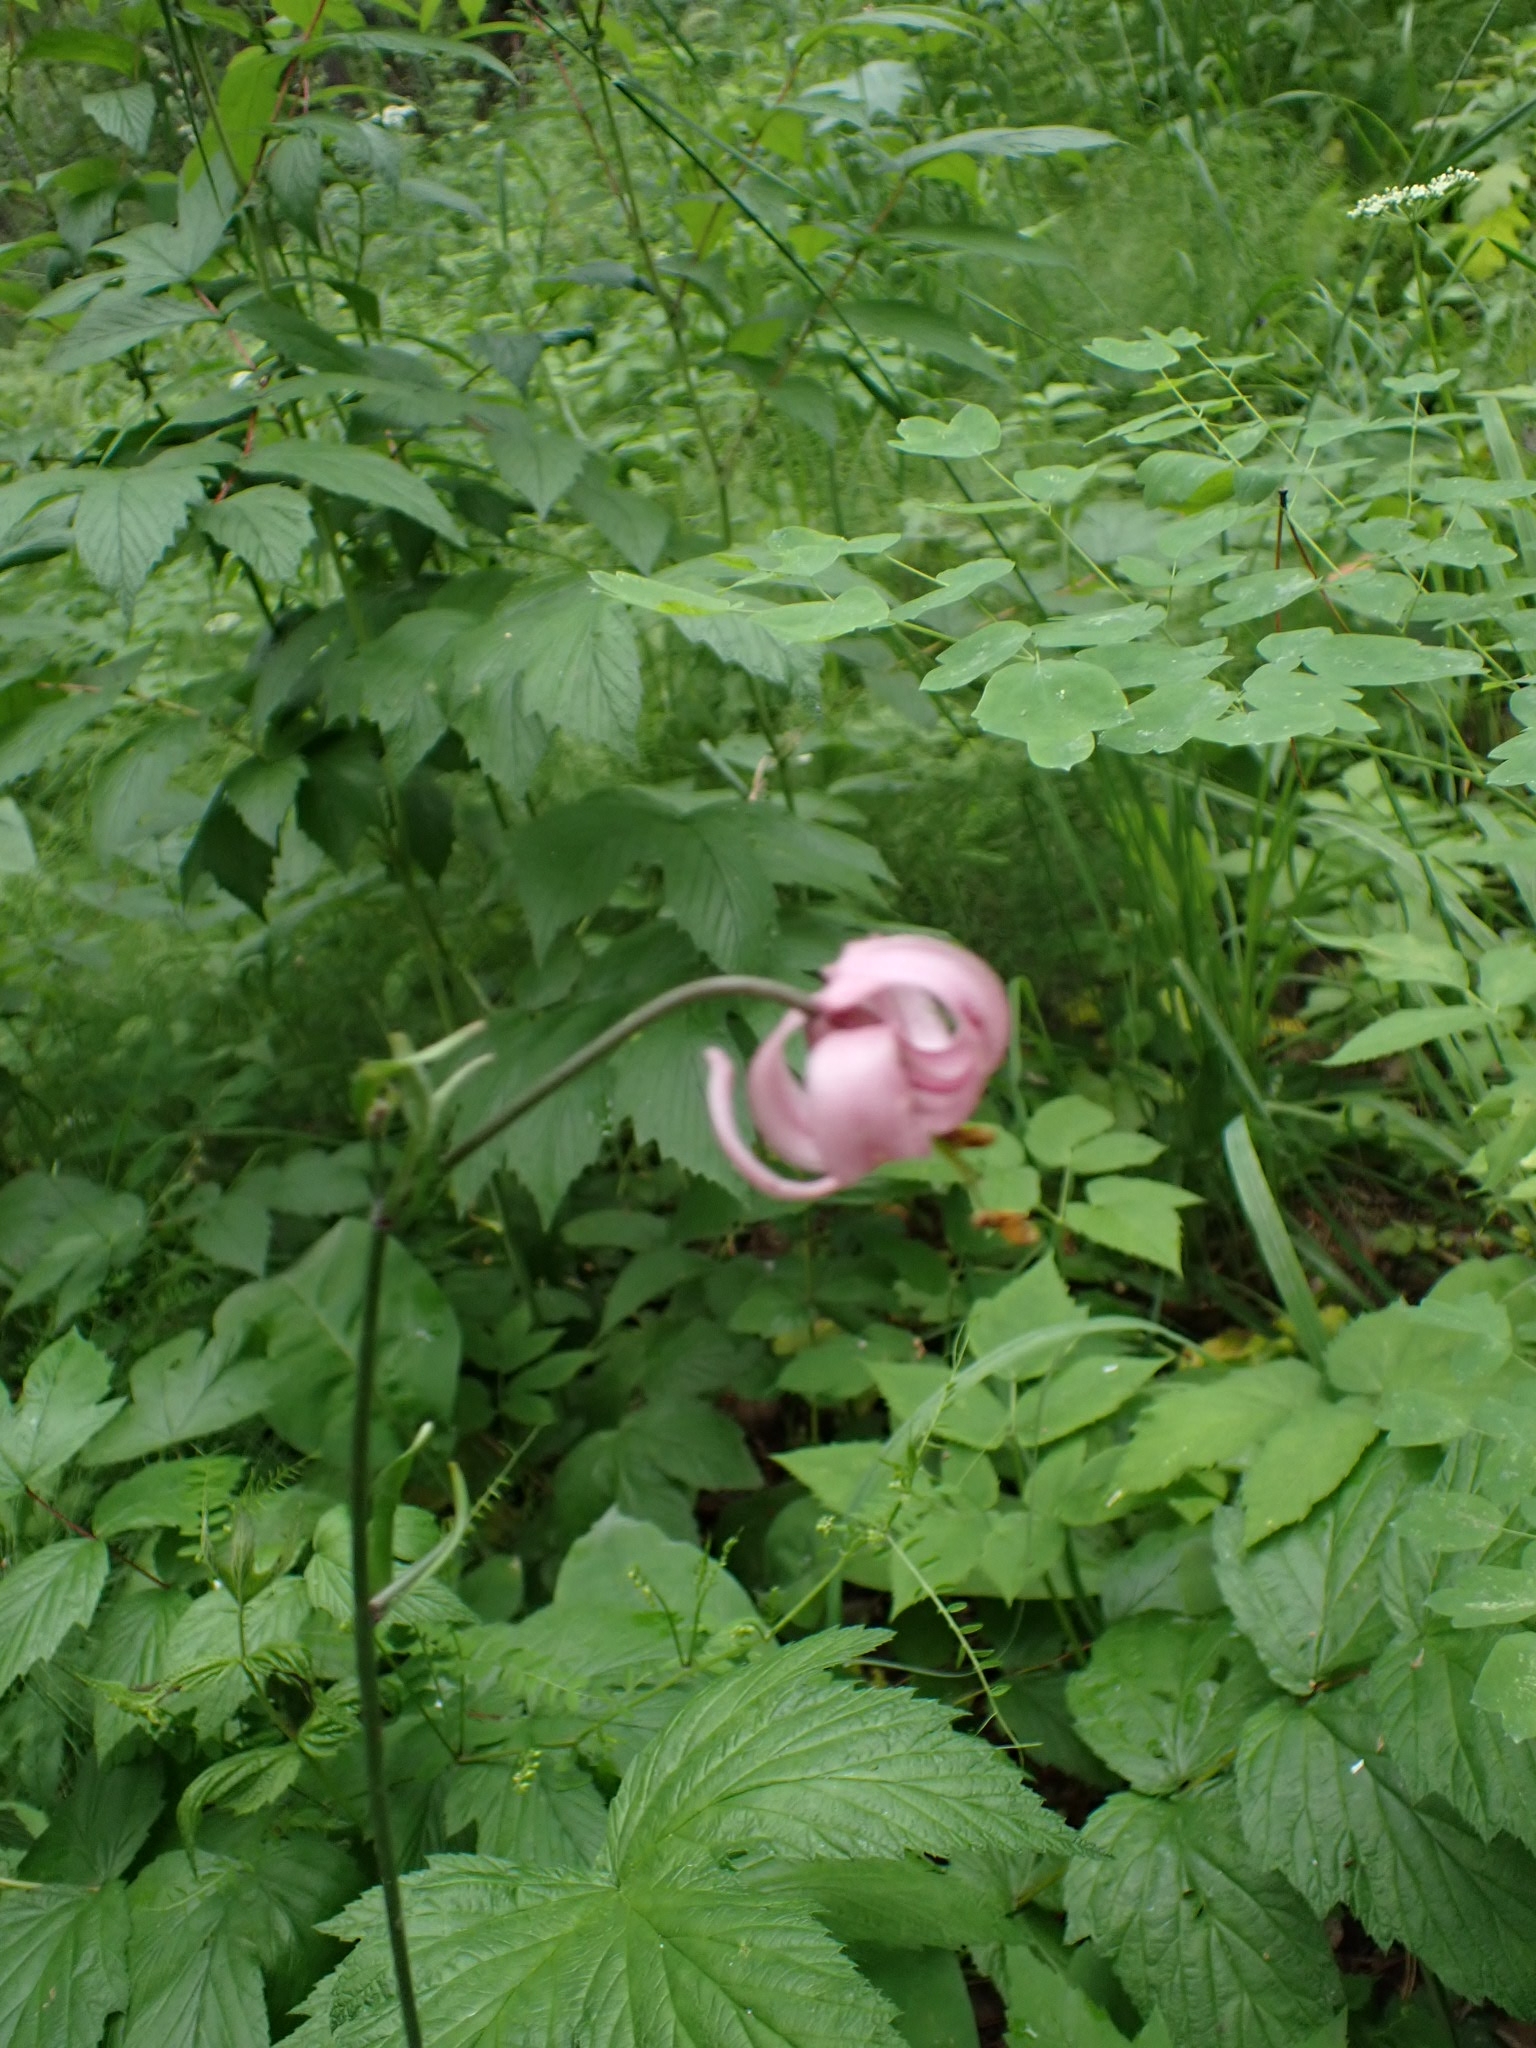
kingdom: Plantae
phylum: Tracheophyta
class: Liliopsida
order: Liliales
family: Liliaceae
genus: Lilium
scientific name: Lilium martagon
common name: Martagon lily
